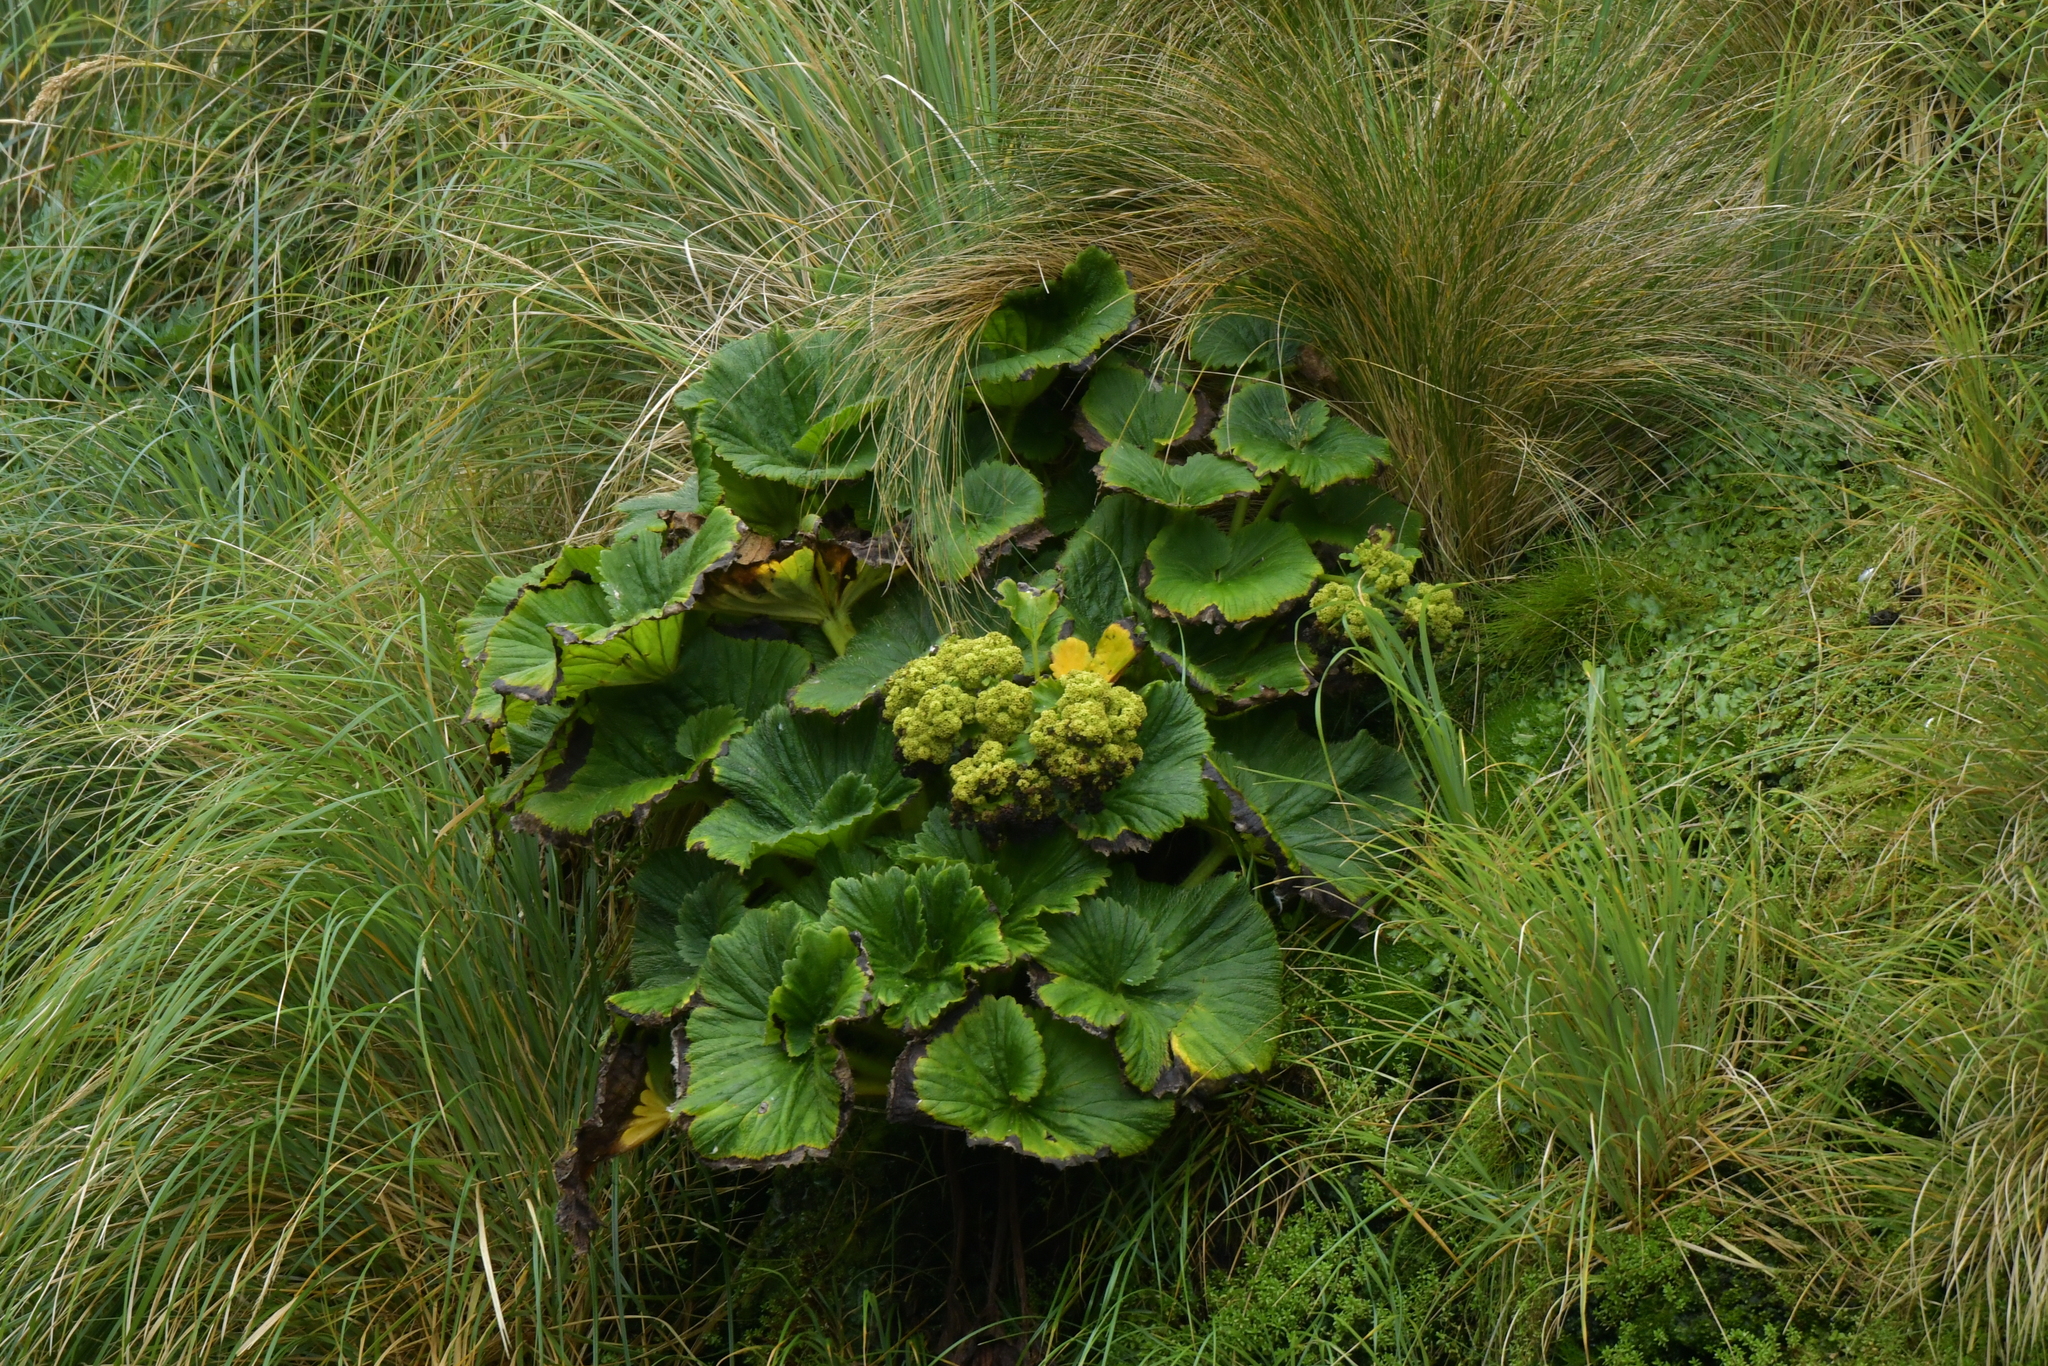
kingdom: Plantae
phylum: Tracheophyta
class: Magnoliopsida
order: Apiales
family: Apiaceae
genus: Azorella
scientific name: Azorella polaris
